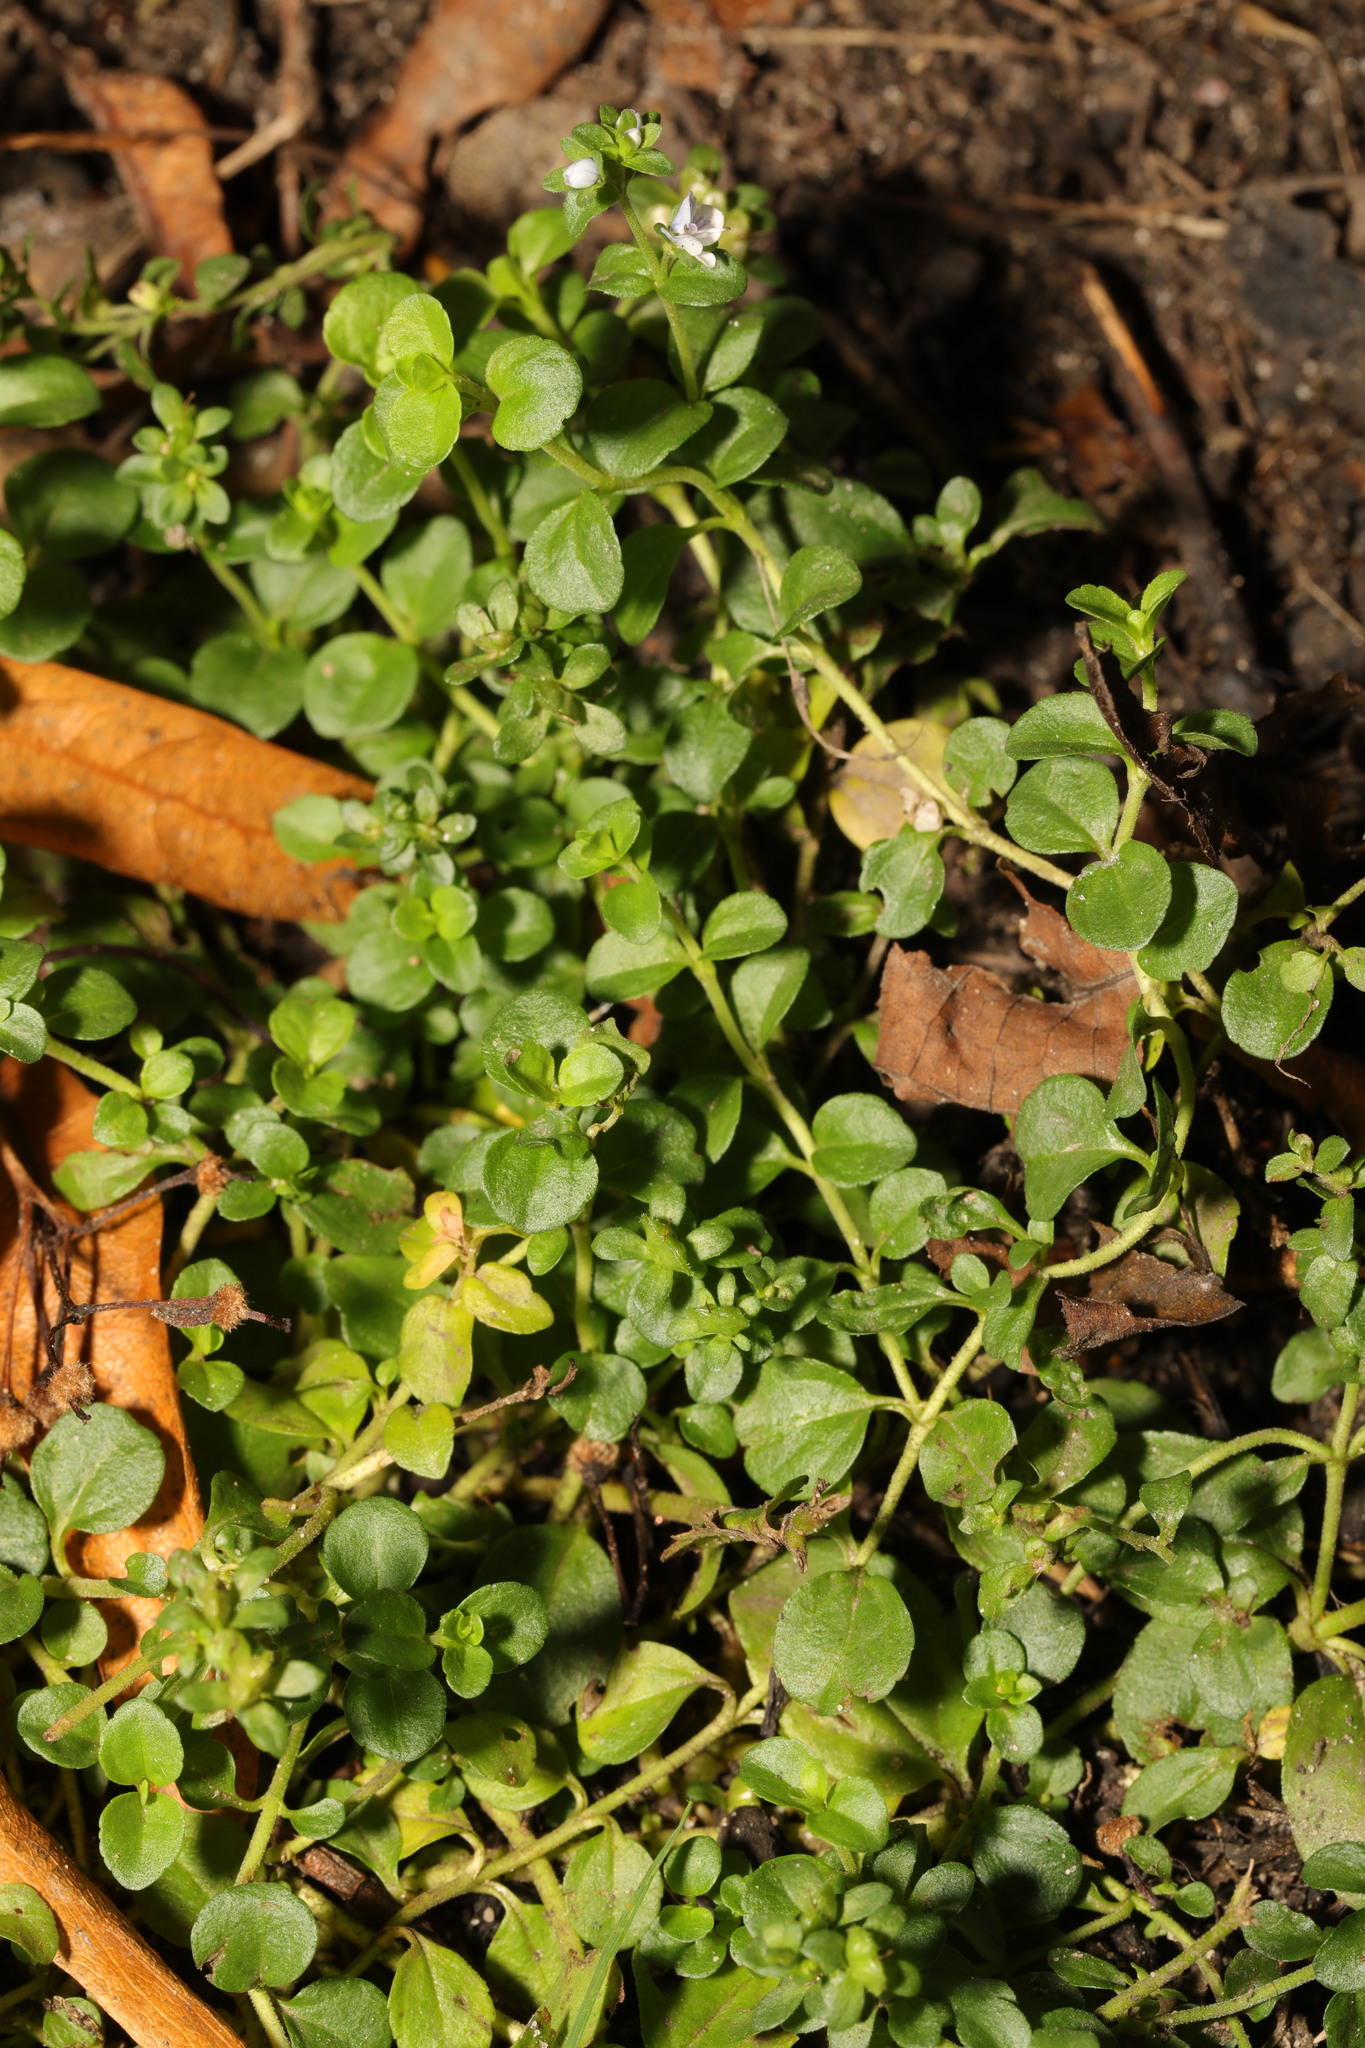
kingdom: Plantae
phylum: Tracheophyta
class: Magnoliopsida
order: Caryophyllales
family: Caryophyllaceae
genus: Stellaria
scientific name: Stellaria media
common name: Common chickweed
